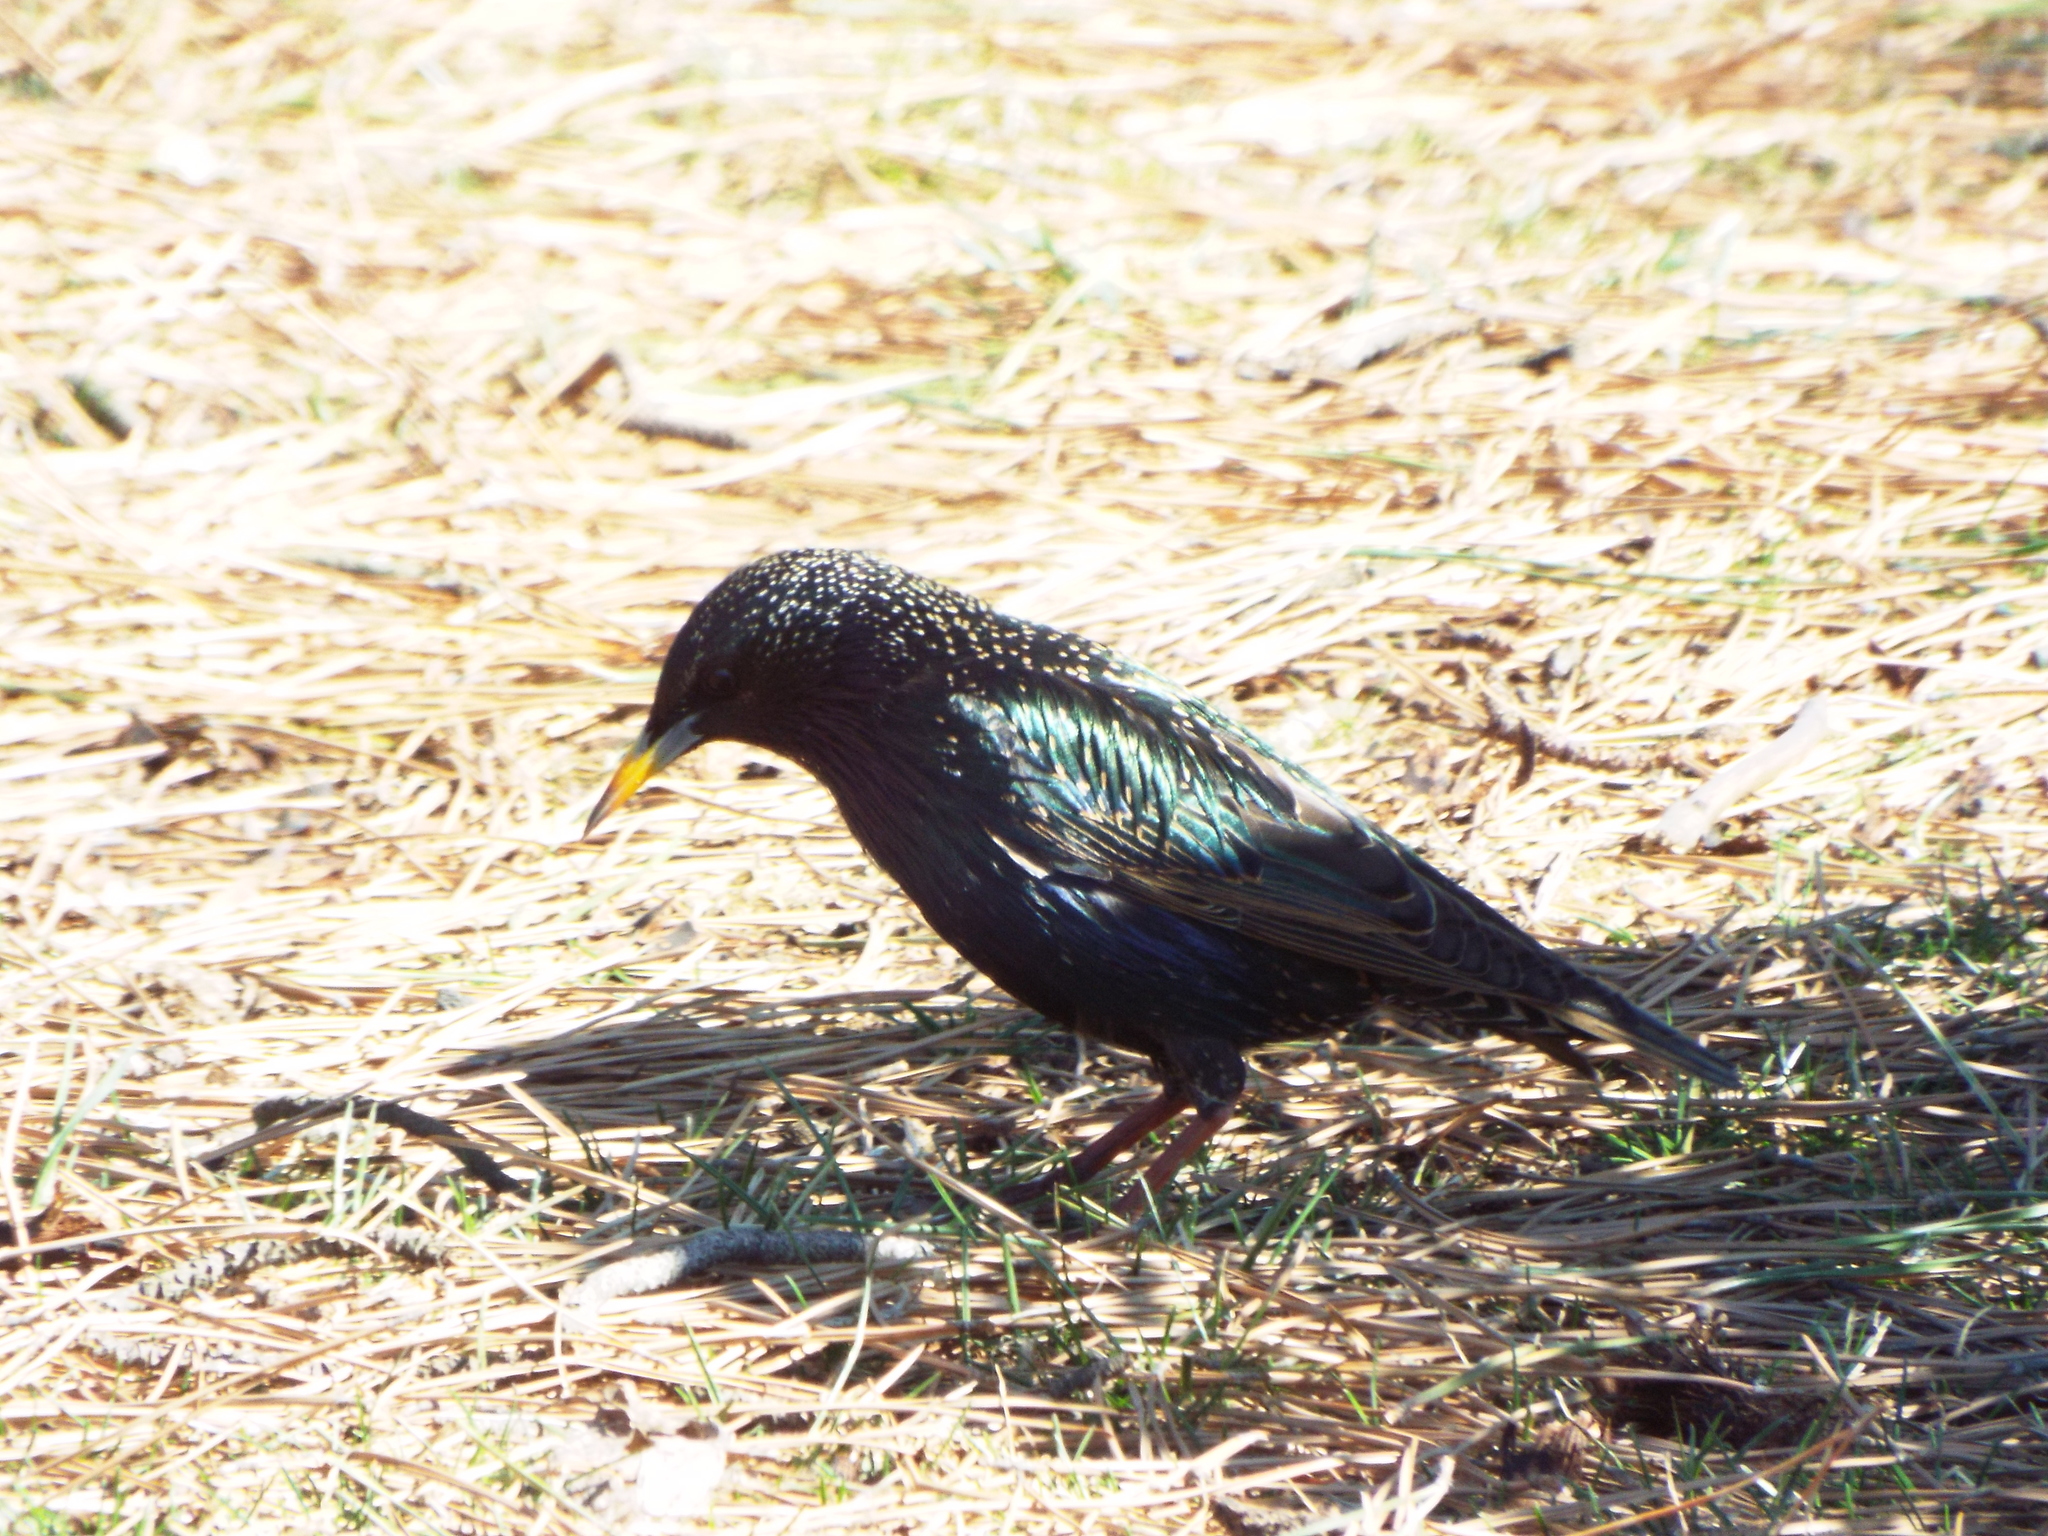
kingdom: Animalia
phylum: Chordata
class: Aves
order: Passeriformes
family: Sturnidae
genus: Sturnus
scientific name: Sturnus vulgaris
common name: Common starling
